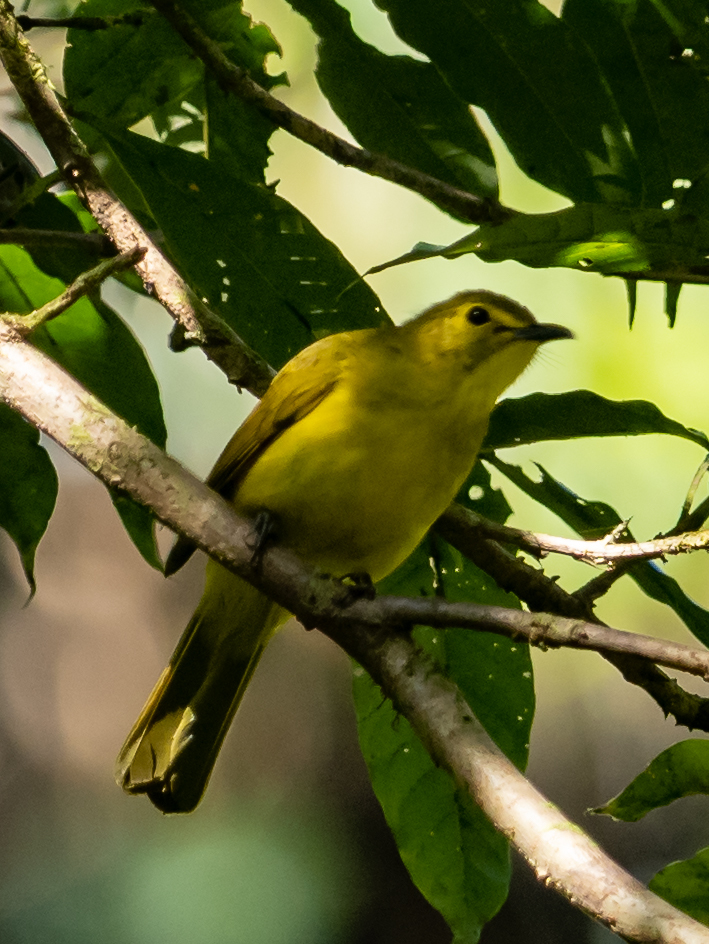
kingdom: Animalia
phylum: Chordata
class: Aves
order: Passeriformes
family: Pycnonotidae
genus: Acritillas
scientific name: Acritillas indica
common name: Yellow-browed bulbul
